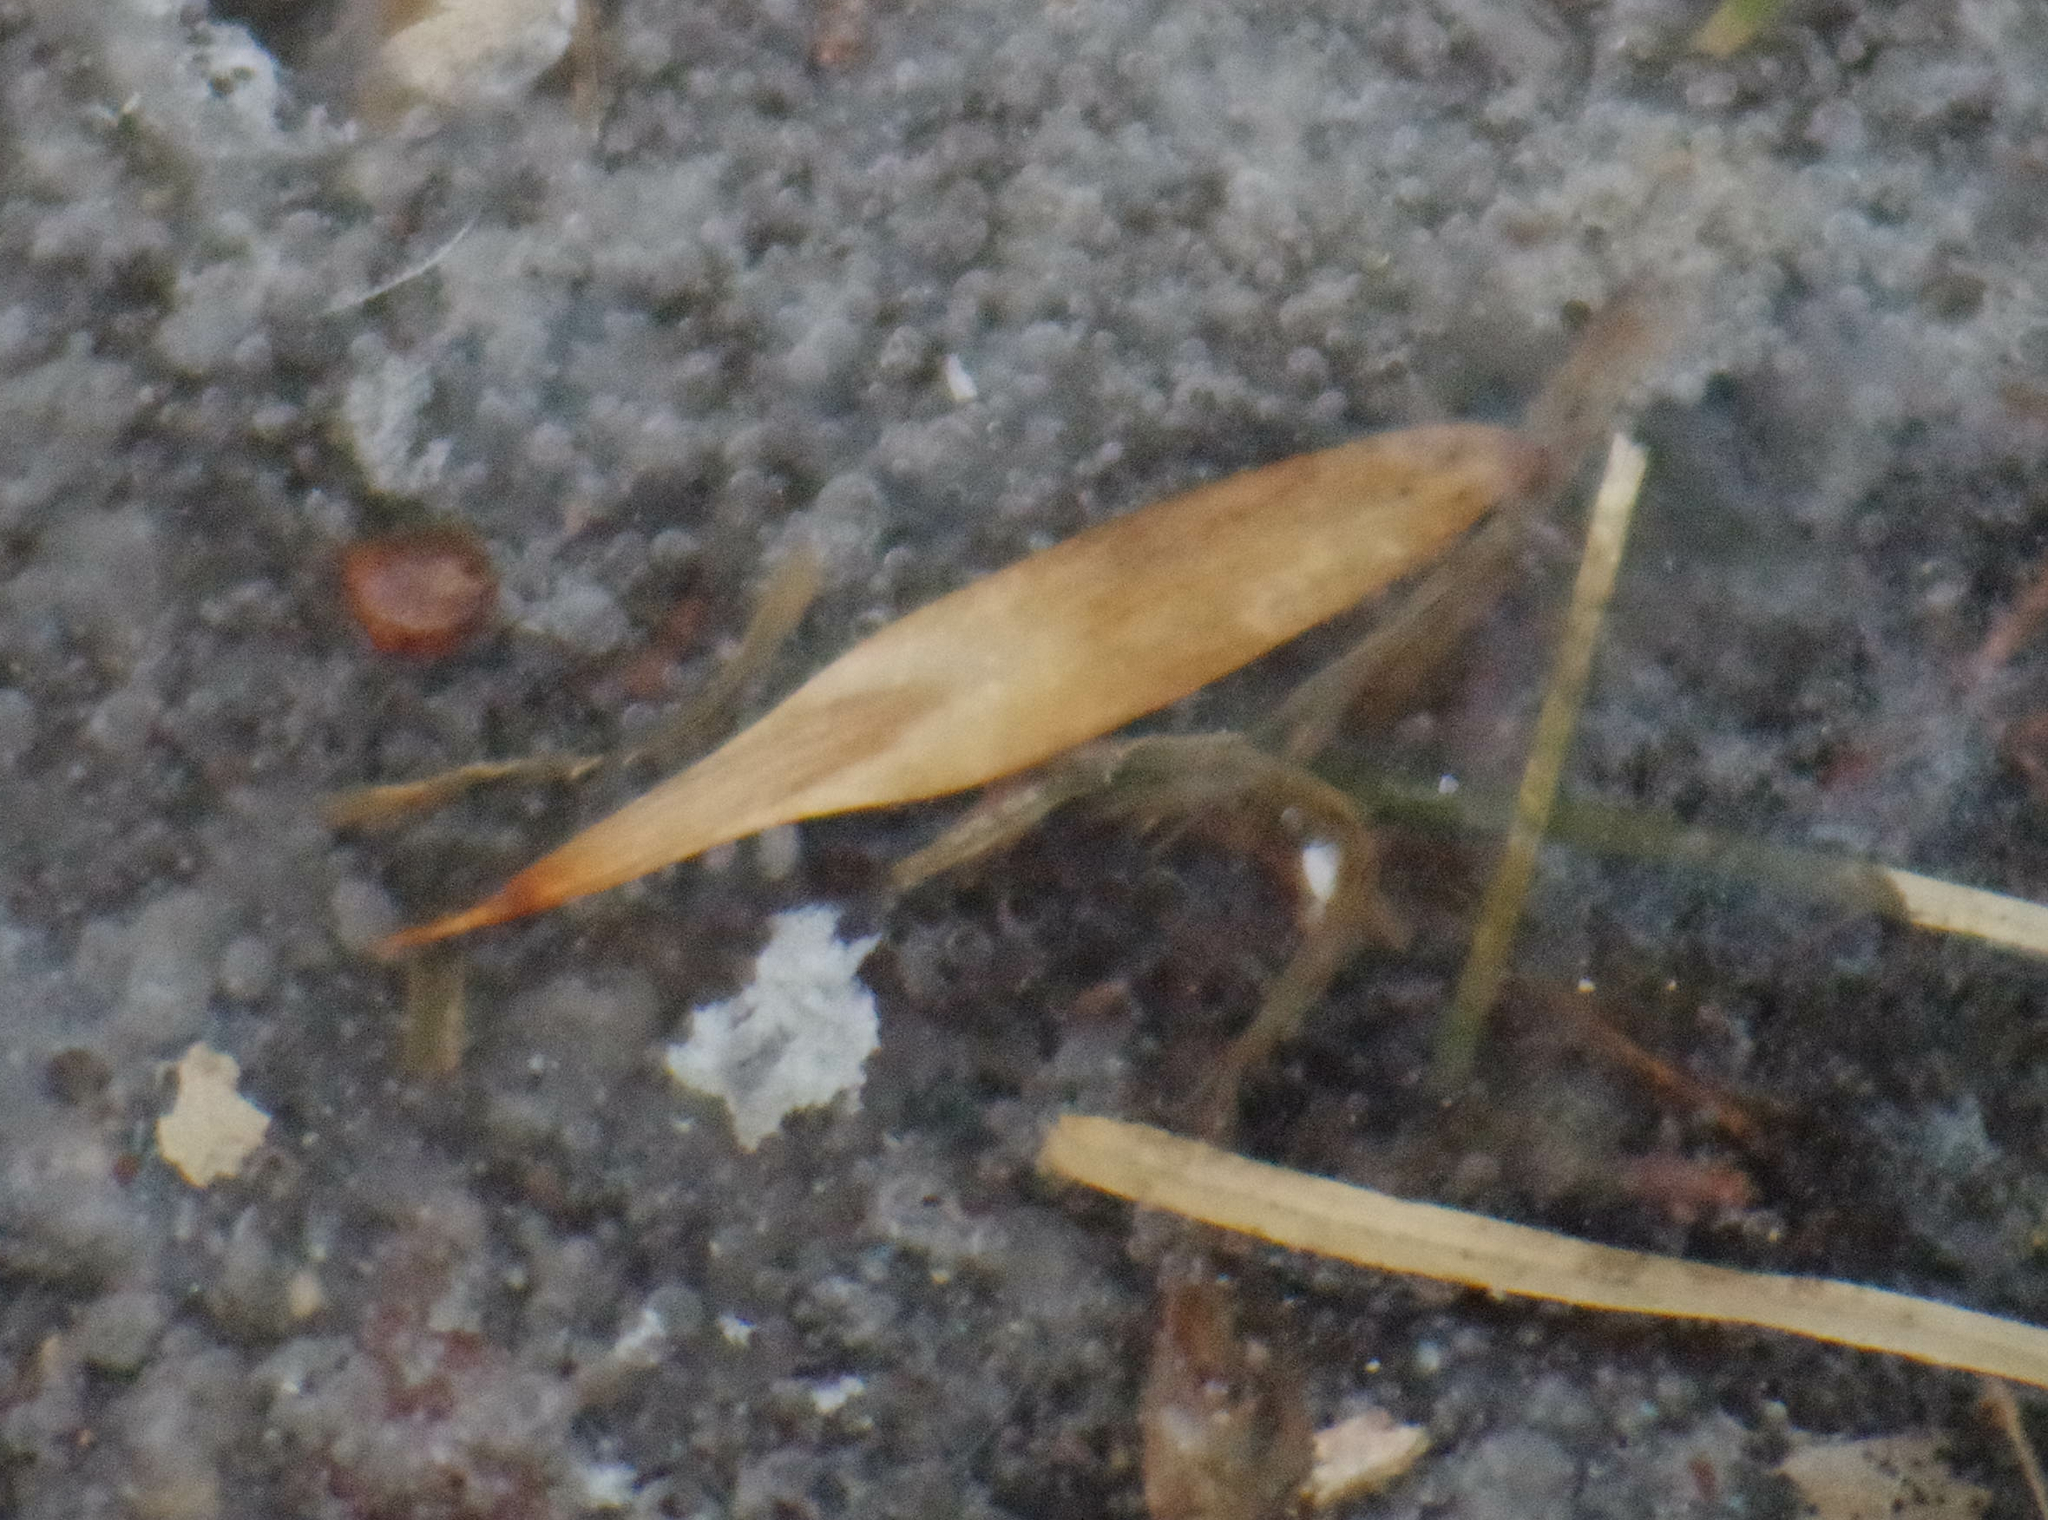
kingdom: Plantae
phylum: Tracheophyta
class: Magnoliopsida
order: Lamiales
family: Oleaceae
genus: Fraxinus
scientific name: Fraxinus pennsylvanica
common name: Green ash
